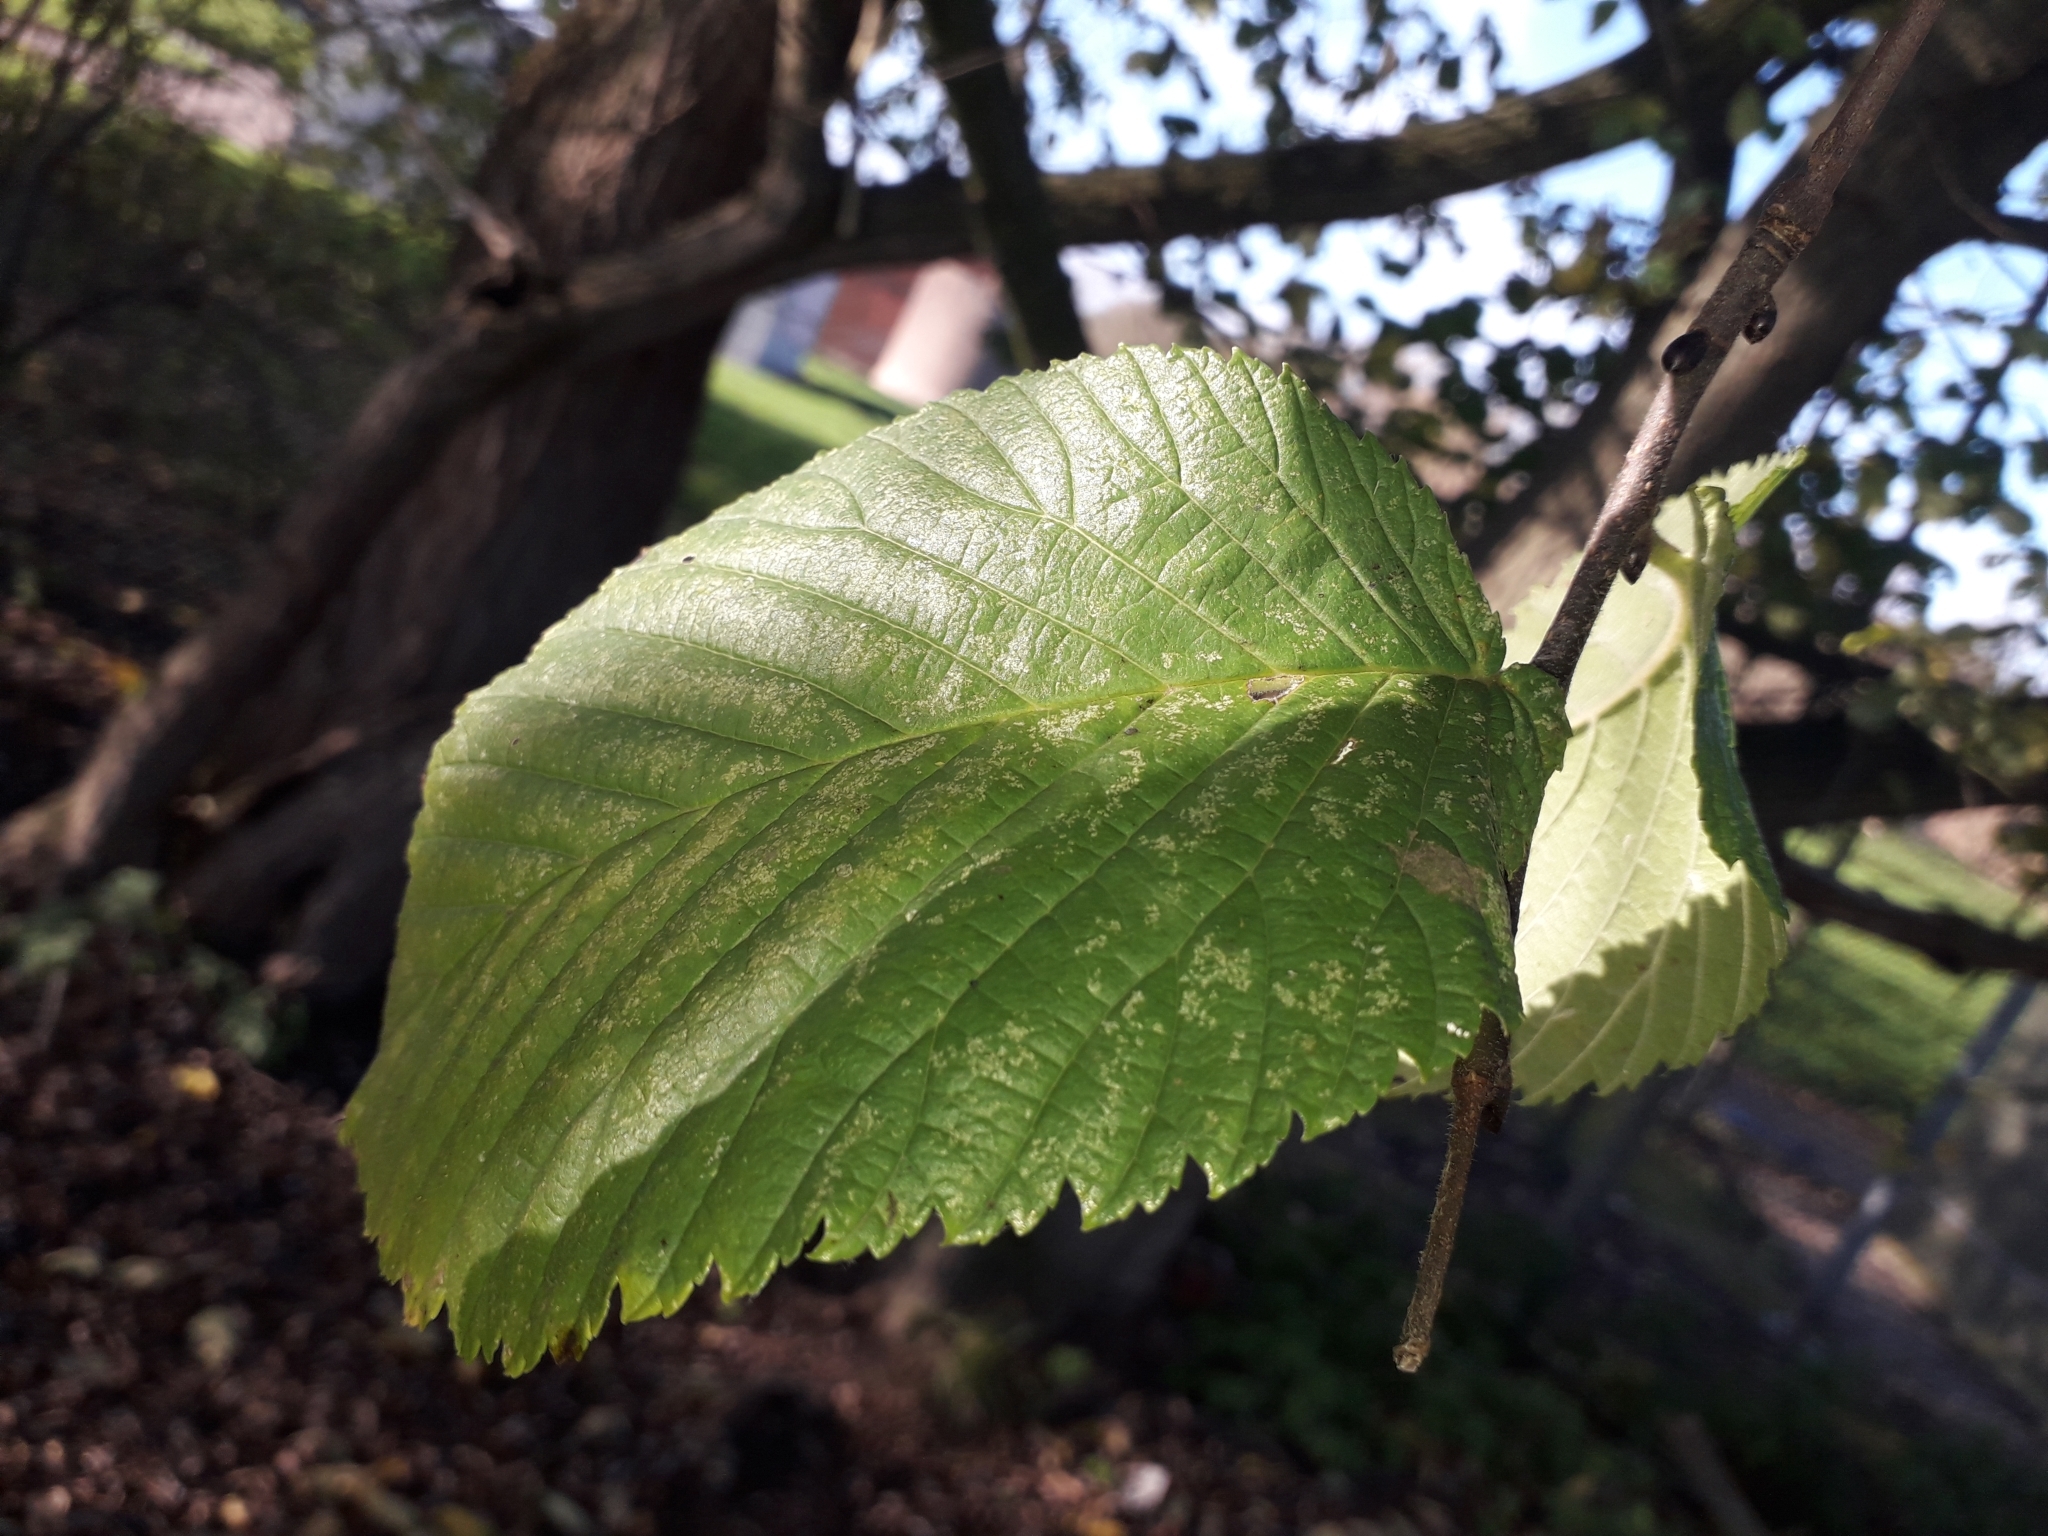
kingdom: Plantae
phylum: Tracheophyta
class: Magnoliopsida
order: Rosales
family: Ulmaceae
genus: Ulmus
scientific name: Ulmus glabra
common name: Wych elm
